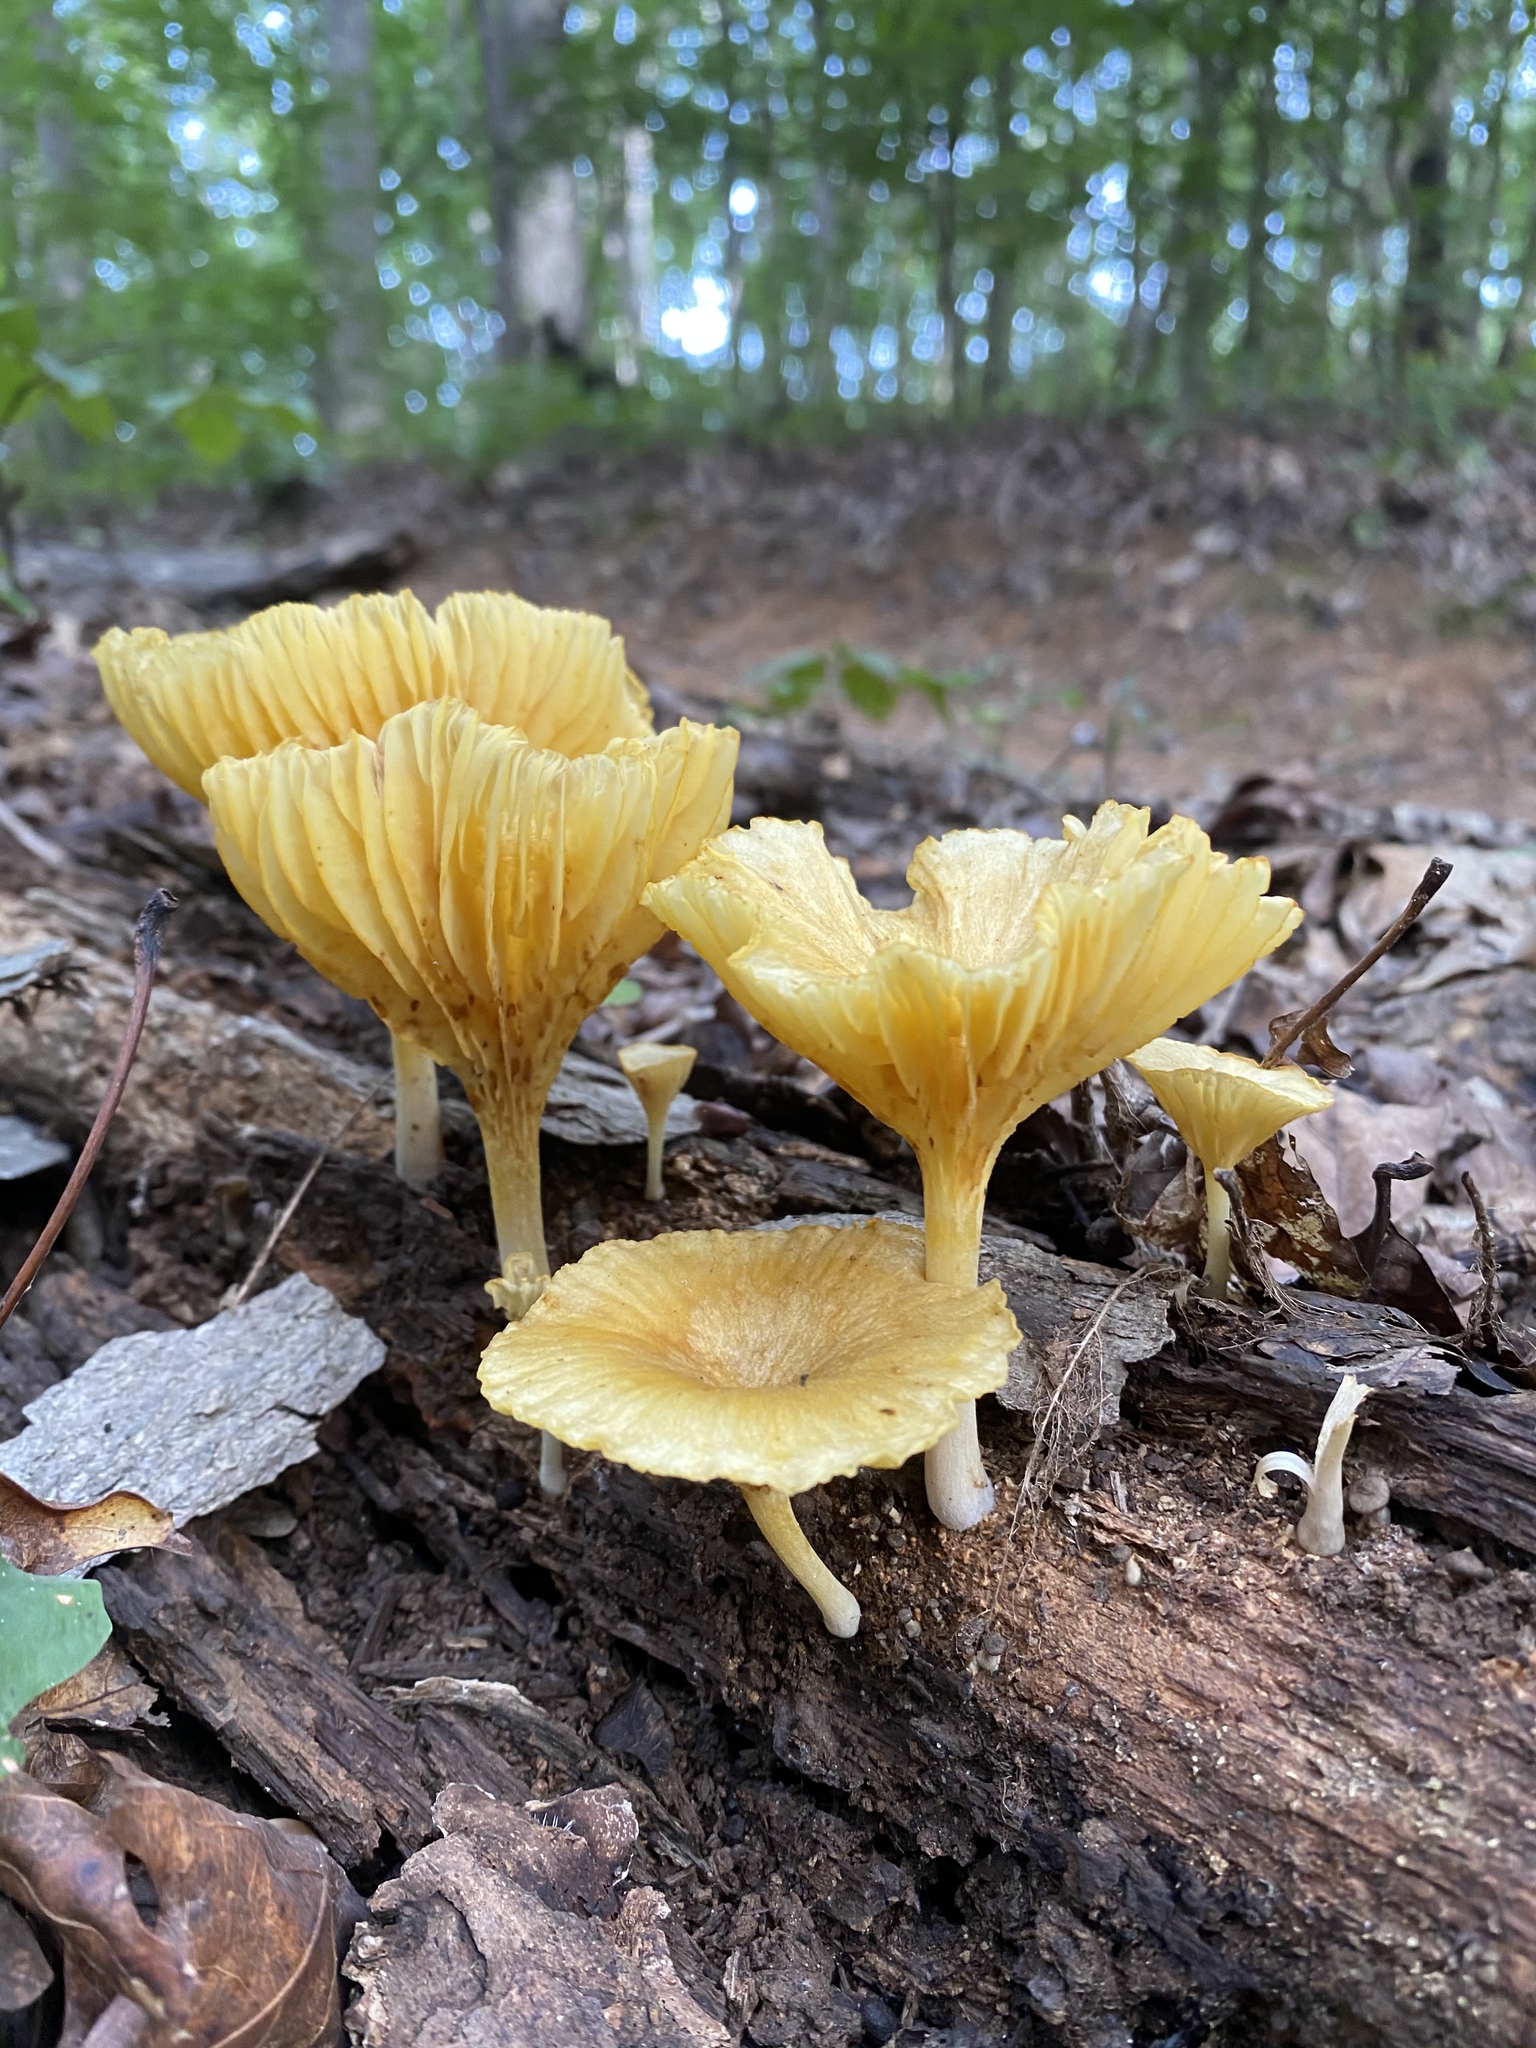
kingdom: Fungi
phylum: Basidiomycota
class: Agaricomycetes
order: Agaricales
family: Marasmiaceae
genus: Gerronema
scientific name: Gerronema strombodes
